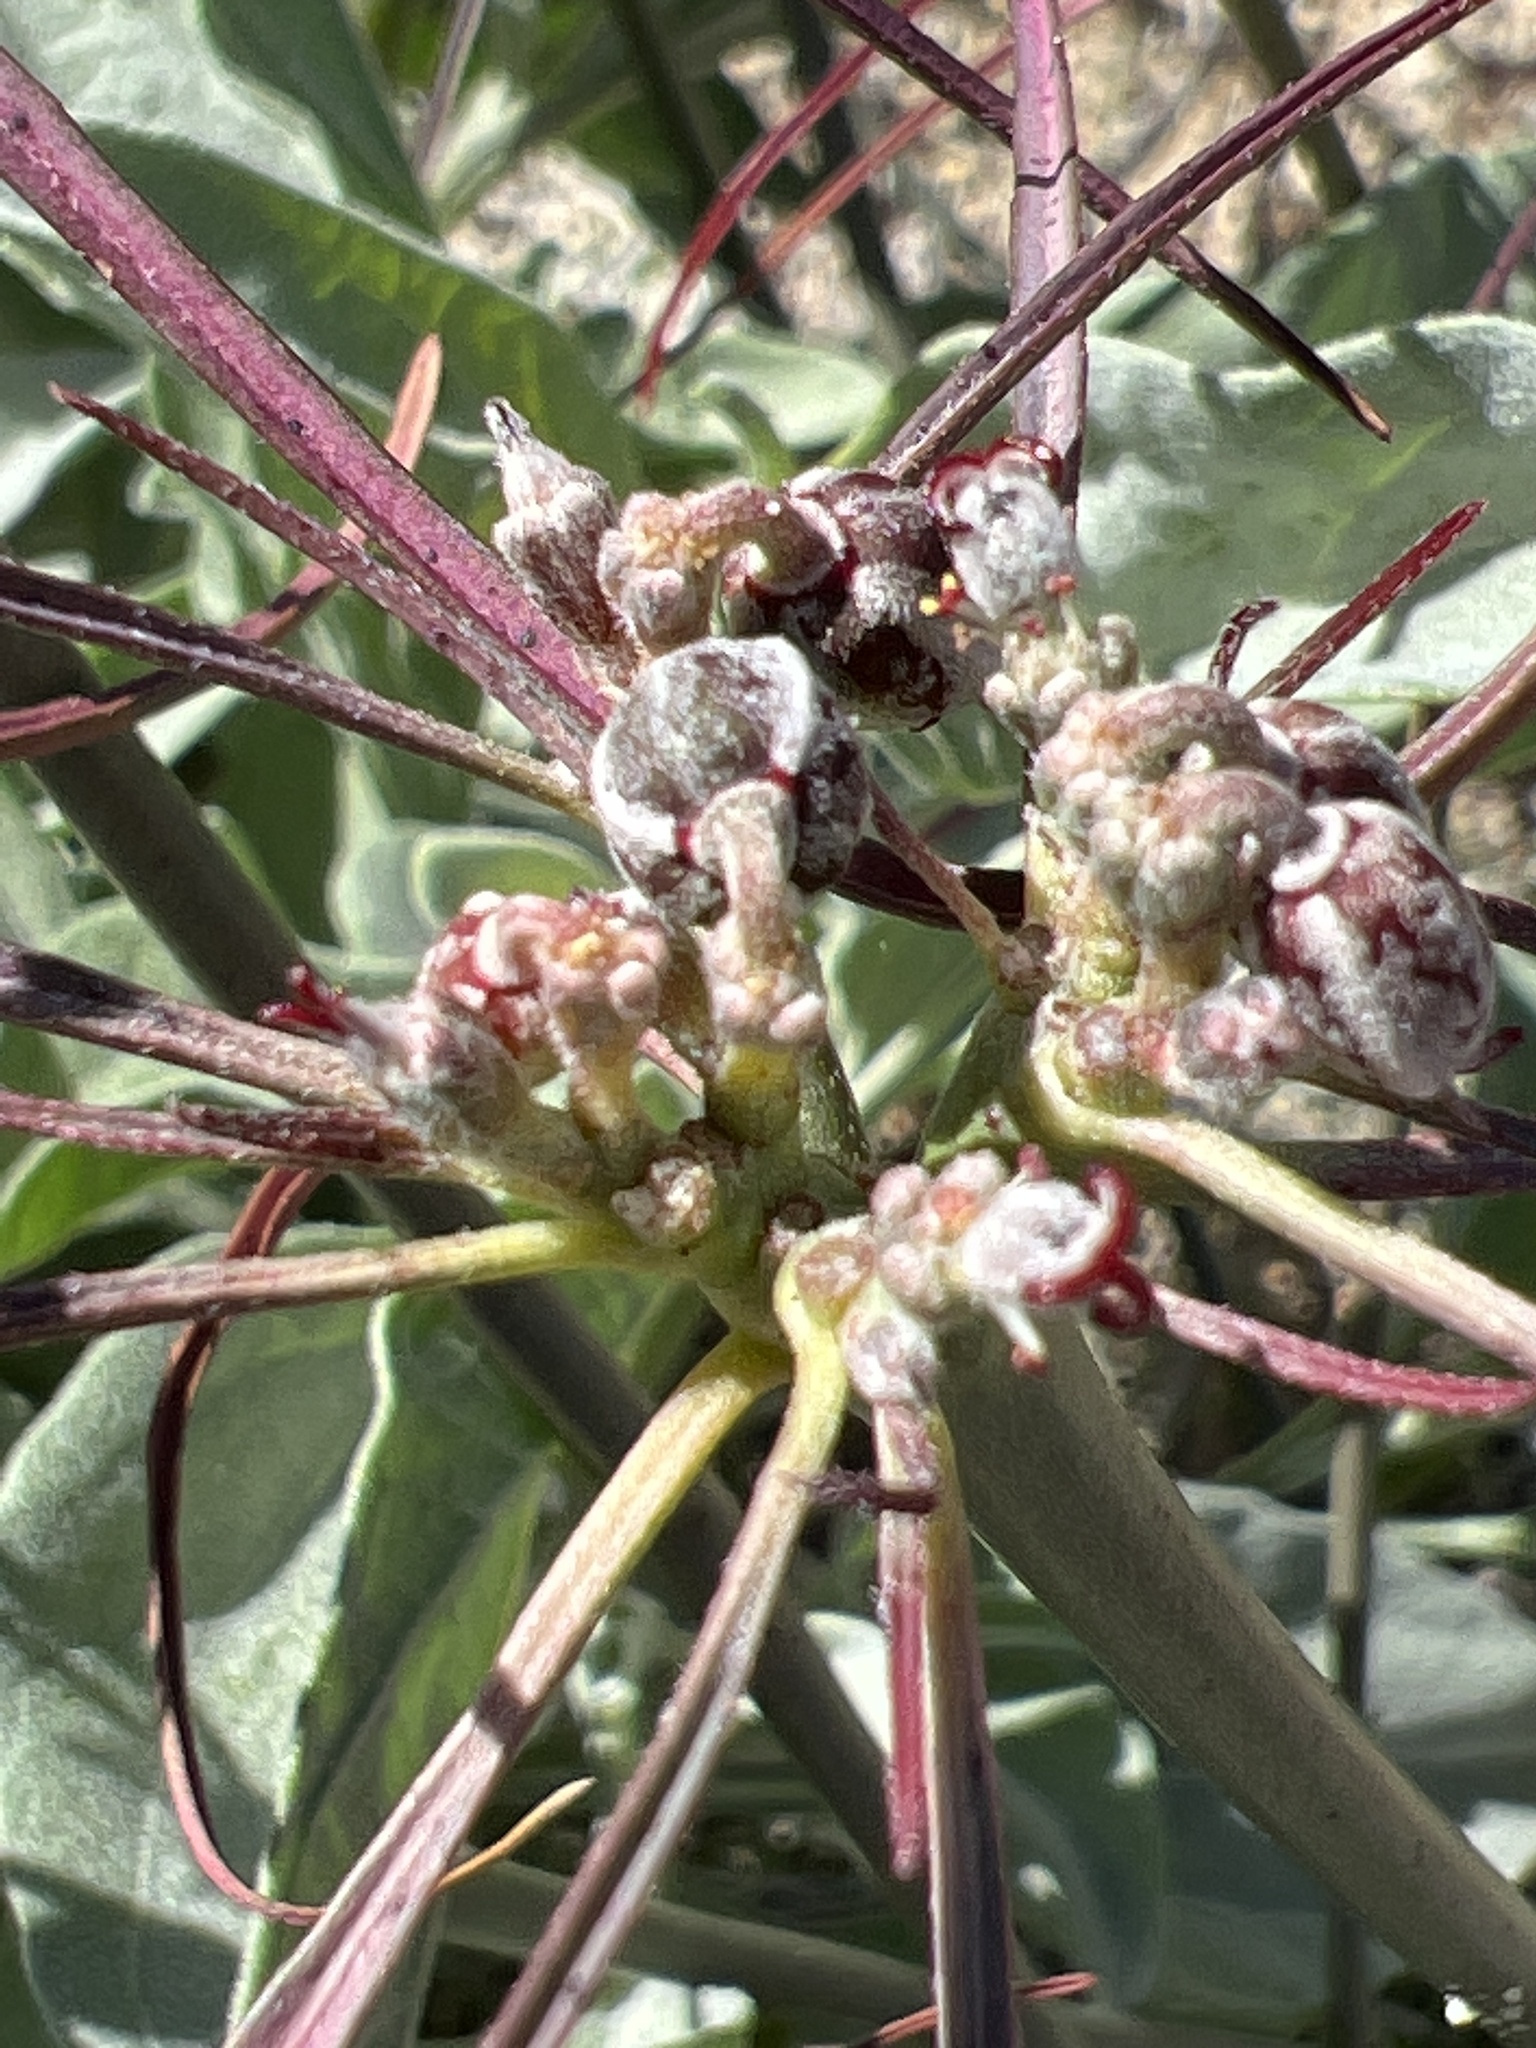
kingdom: Plantae
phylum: Tracheophyta
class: Magnoliopsida
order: Malpighiales
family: Euphorbiaceae
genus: Euphorbia
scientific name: Euphorbia eriantha
